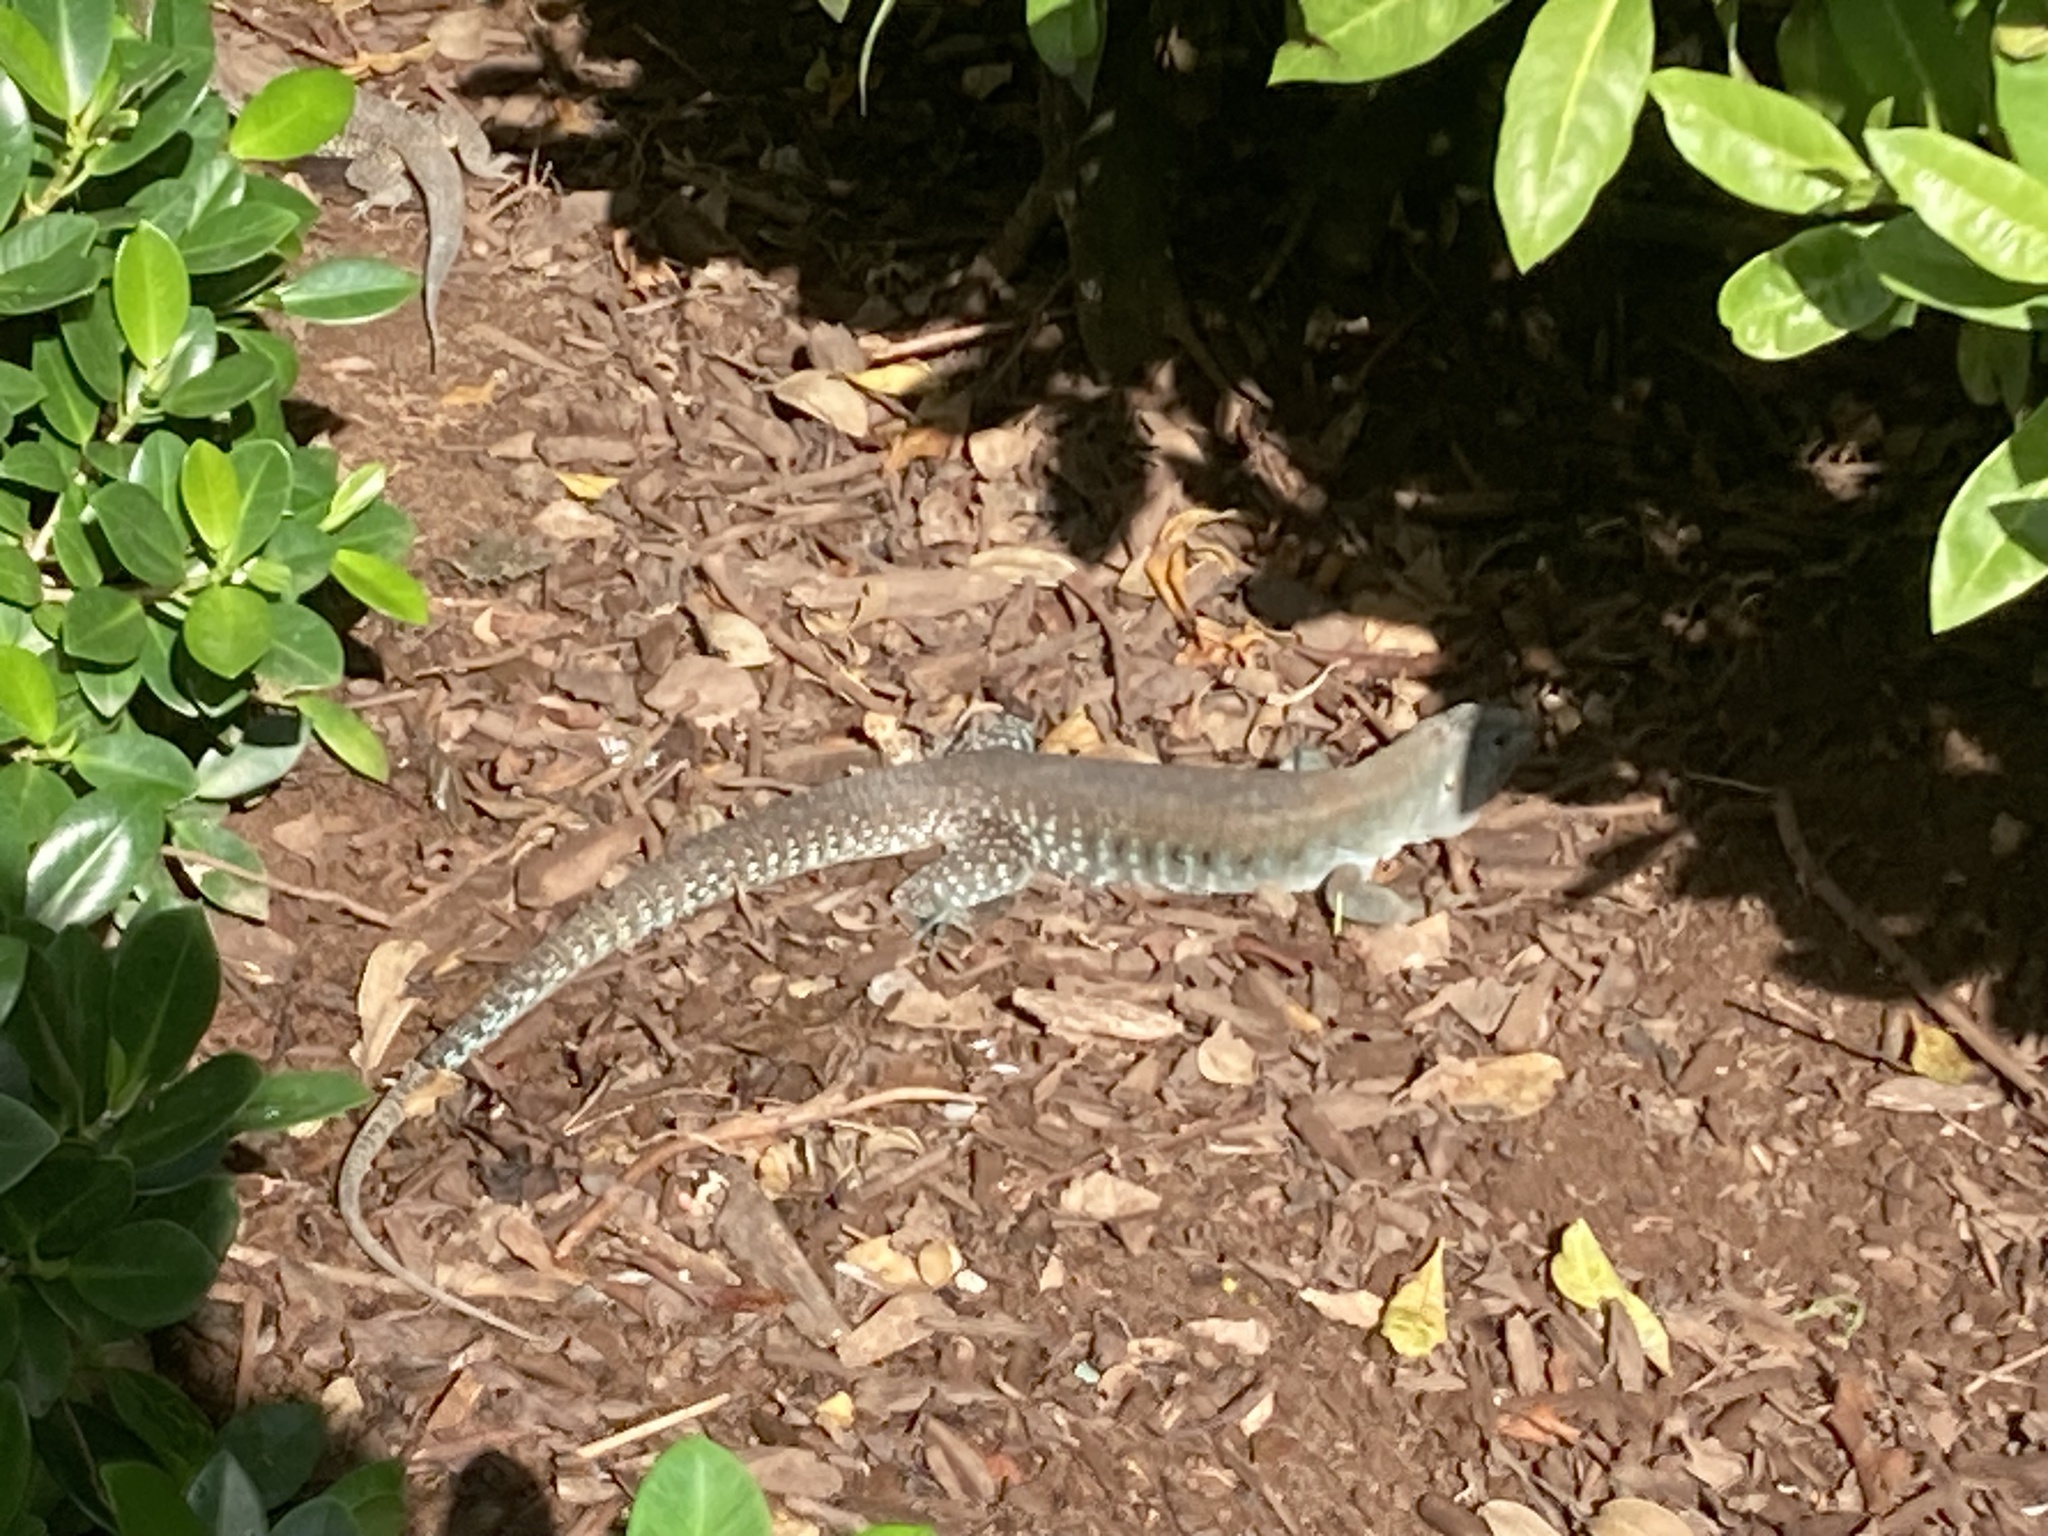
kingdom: Animalia
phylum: Chordata
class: Squamata
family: Teiidae
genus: Pholidoscelis
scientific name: Pholidoscelis exsul
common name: Common puerto rican ameiva
